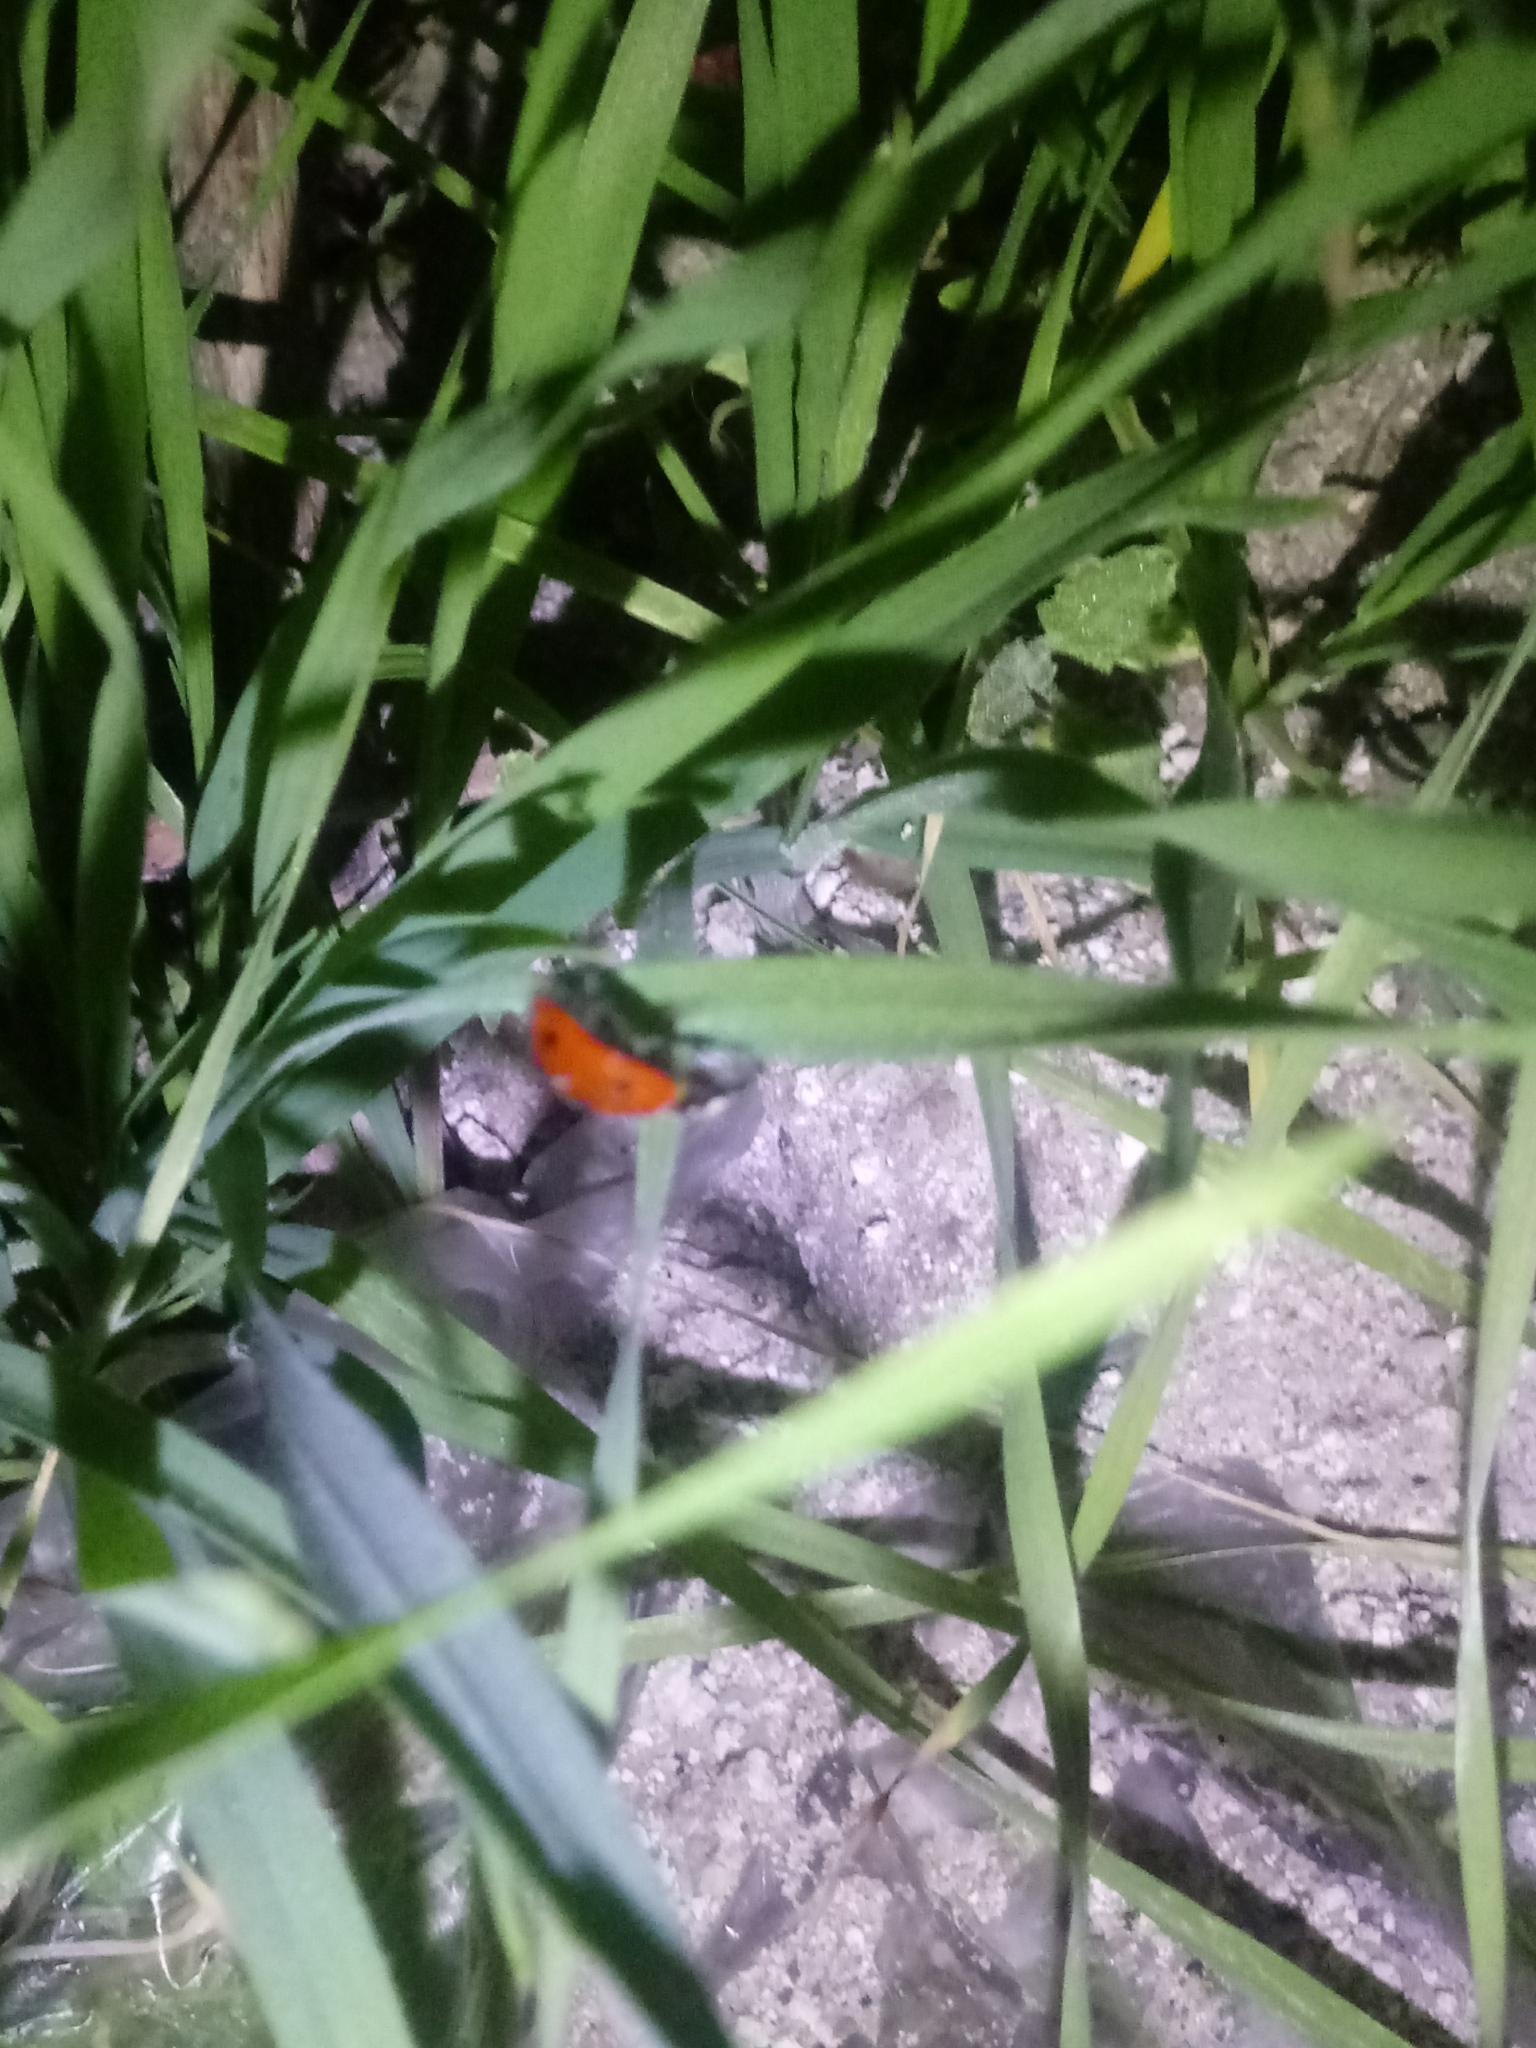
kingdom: Animalia
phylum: Arthropoda
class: Insecta
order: Coleoptera
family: Coccinellidae
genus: Coccinella
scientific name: Coccinella septempunctata
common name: Sevenspotted lady beetle
